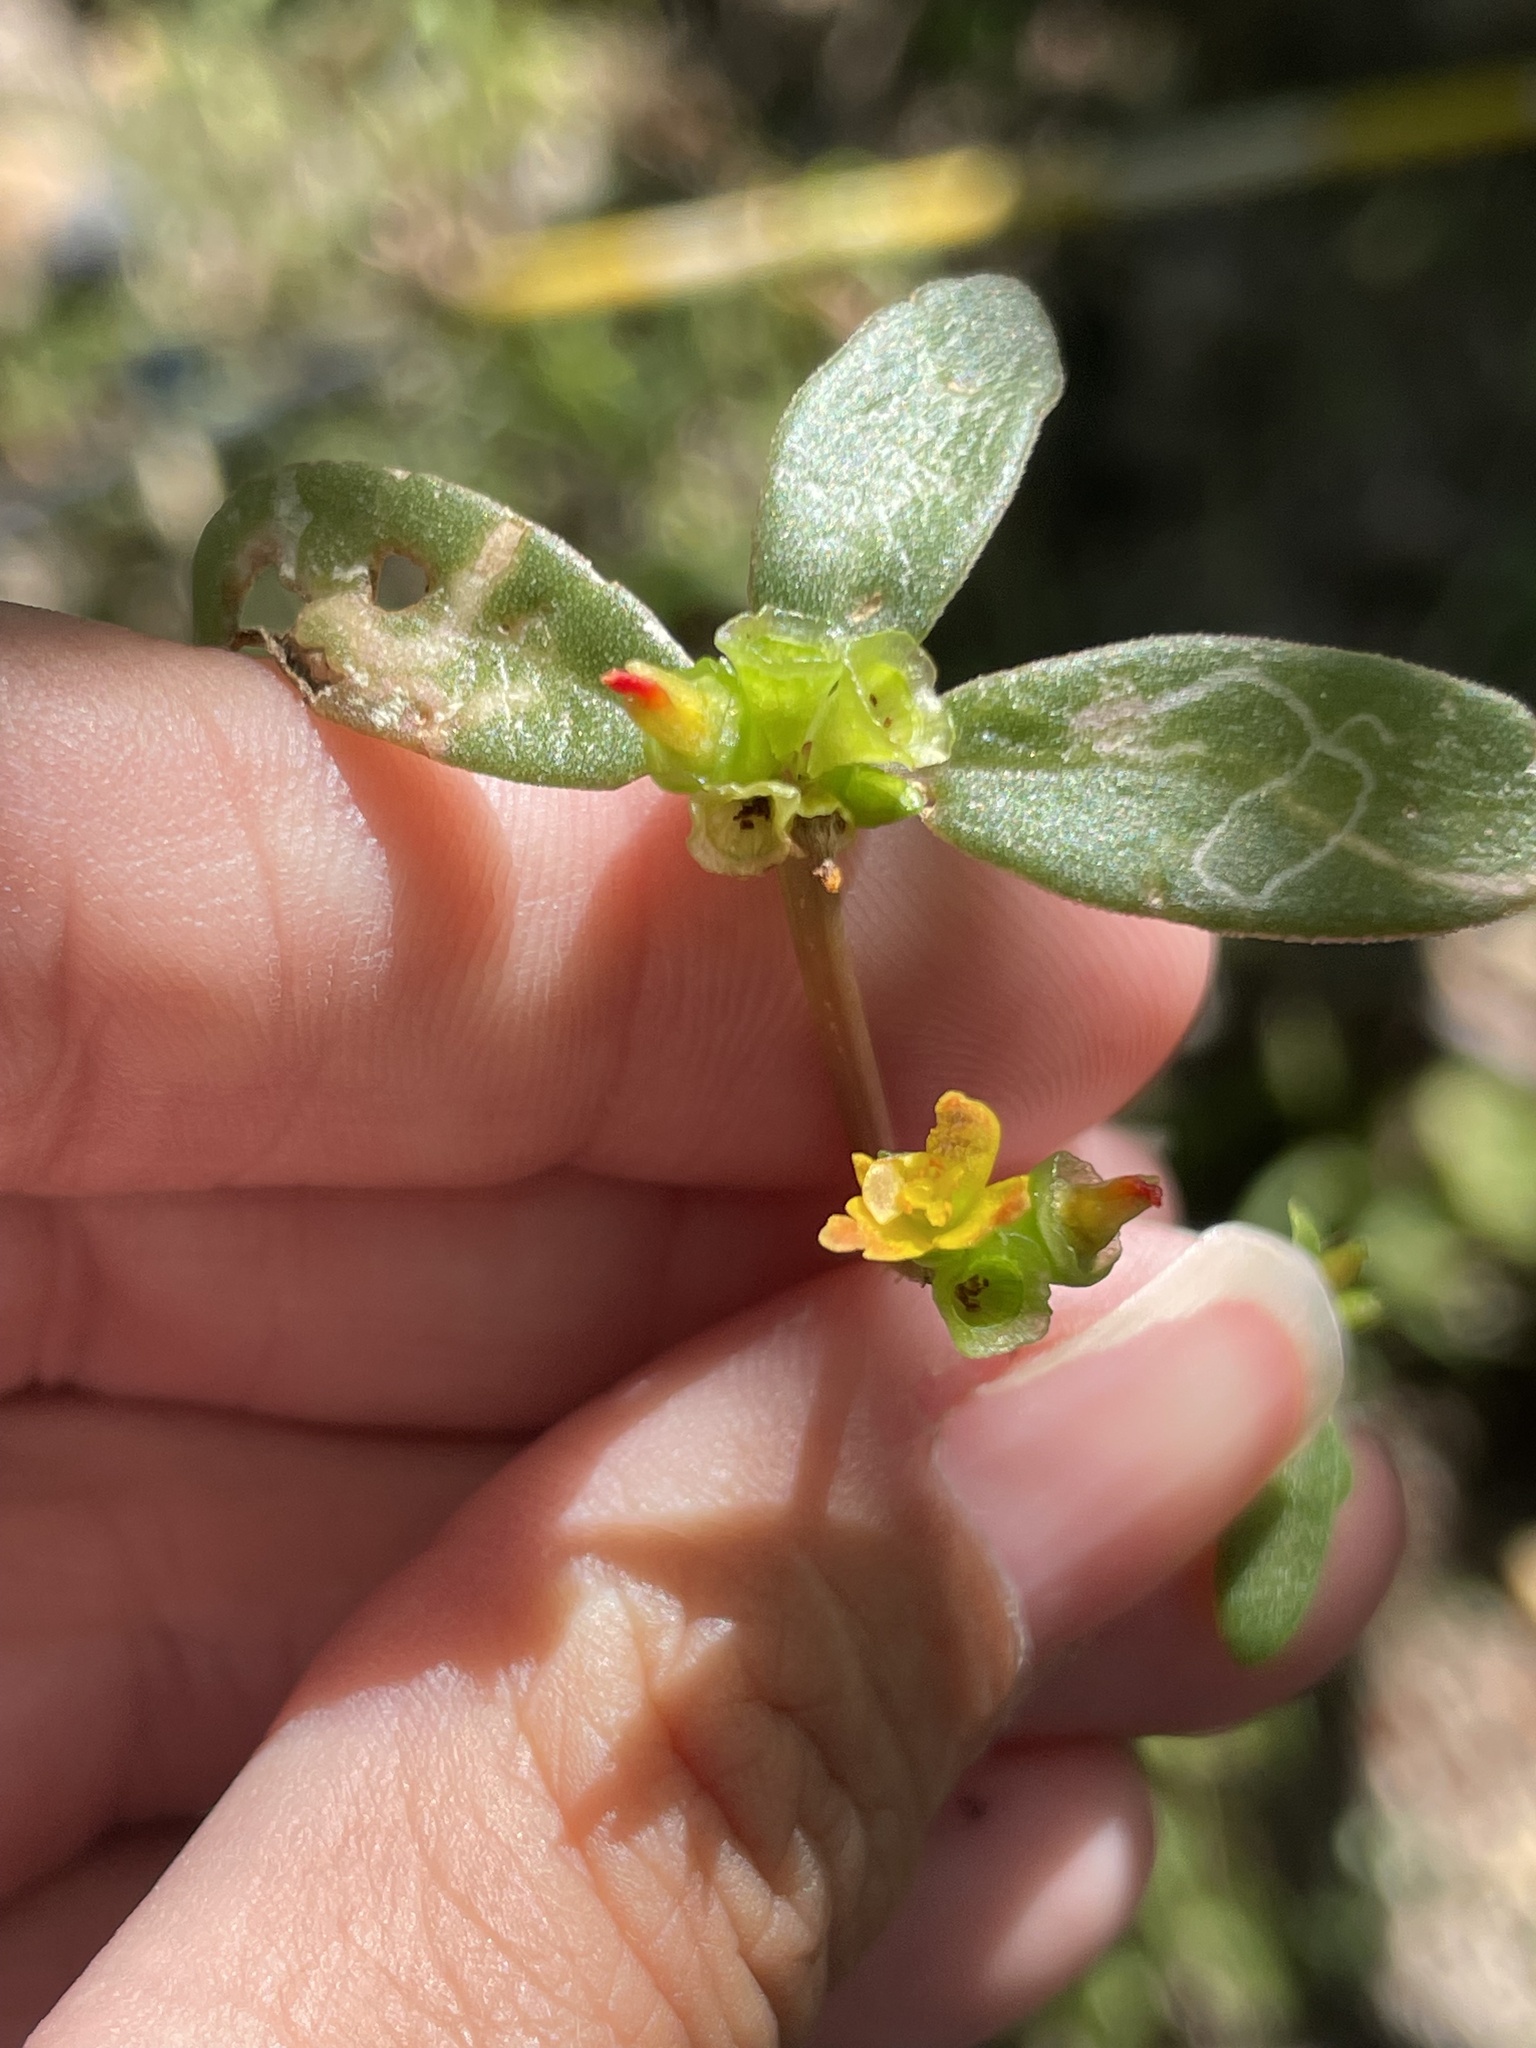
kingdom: Plantae
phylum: Tracheophyta
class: Magnoliopsida
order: Caryophyllales
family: Portulacaceae
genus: Portulaca
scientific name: Portulaca umbraticola
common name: Wingpod purslane
